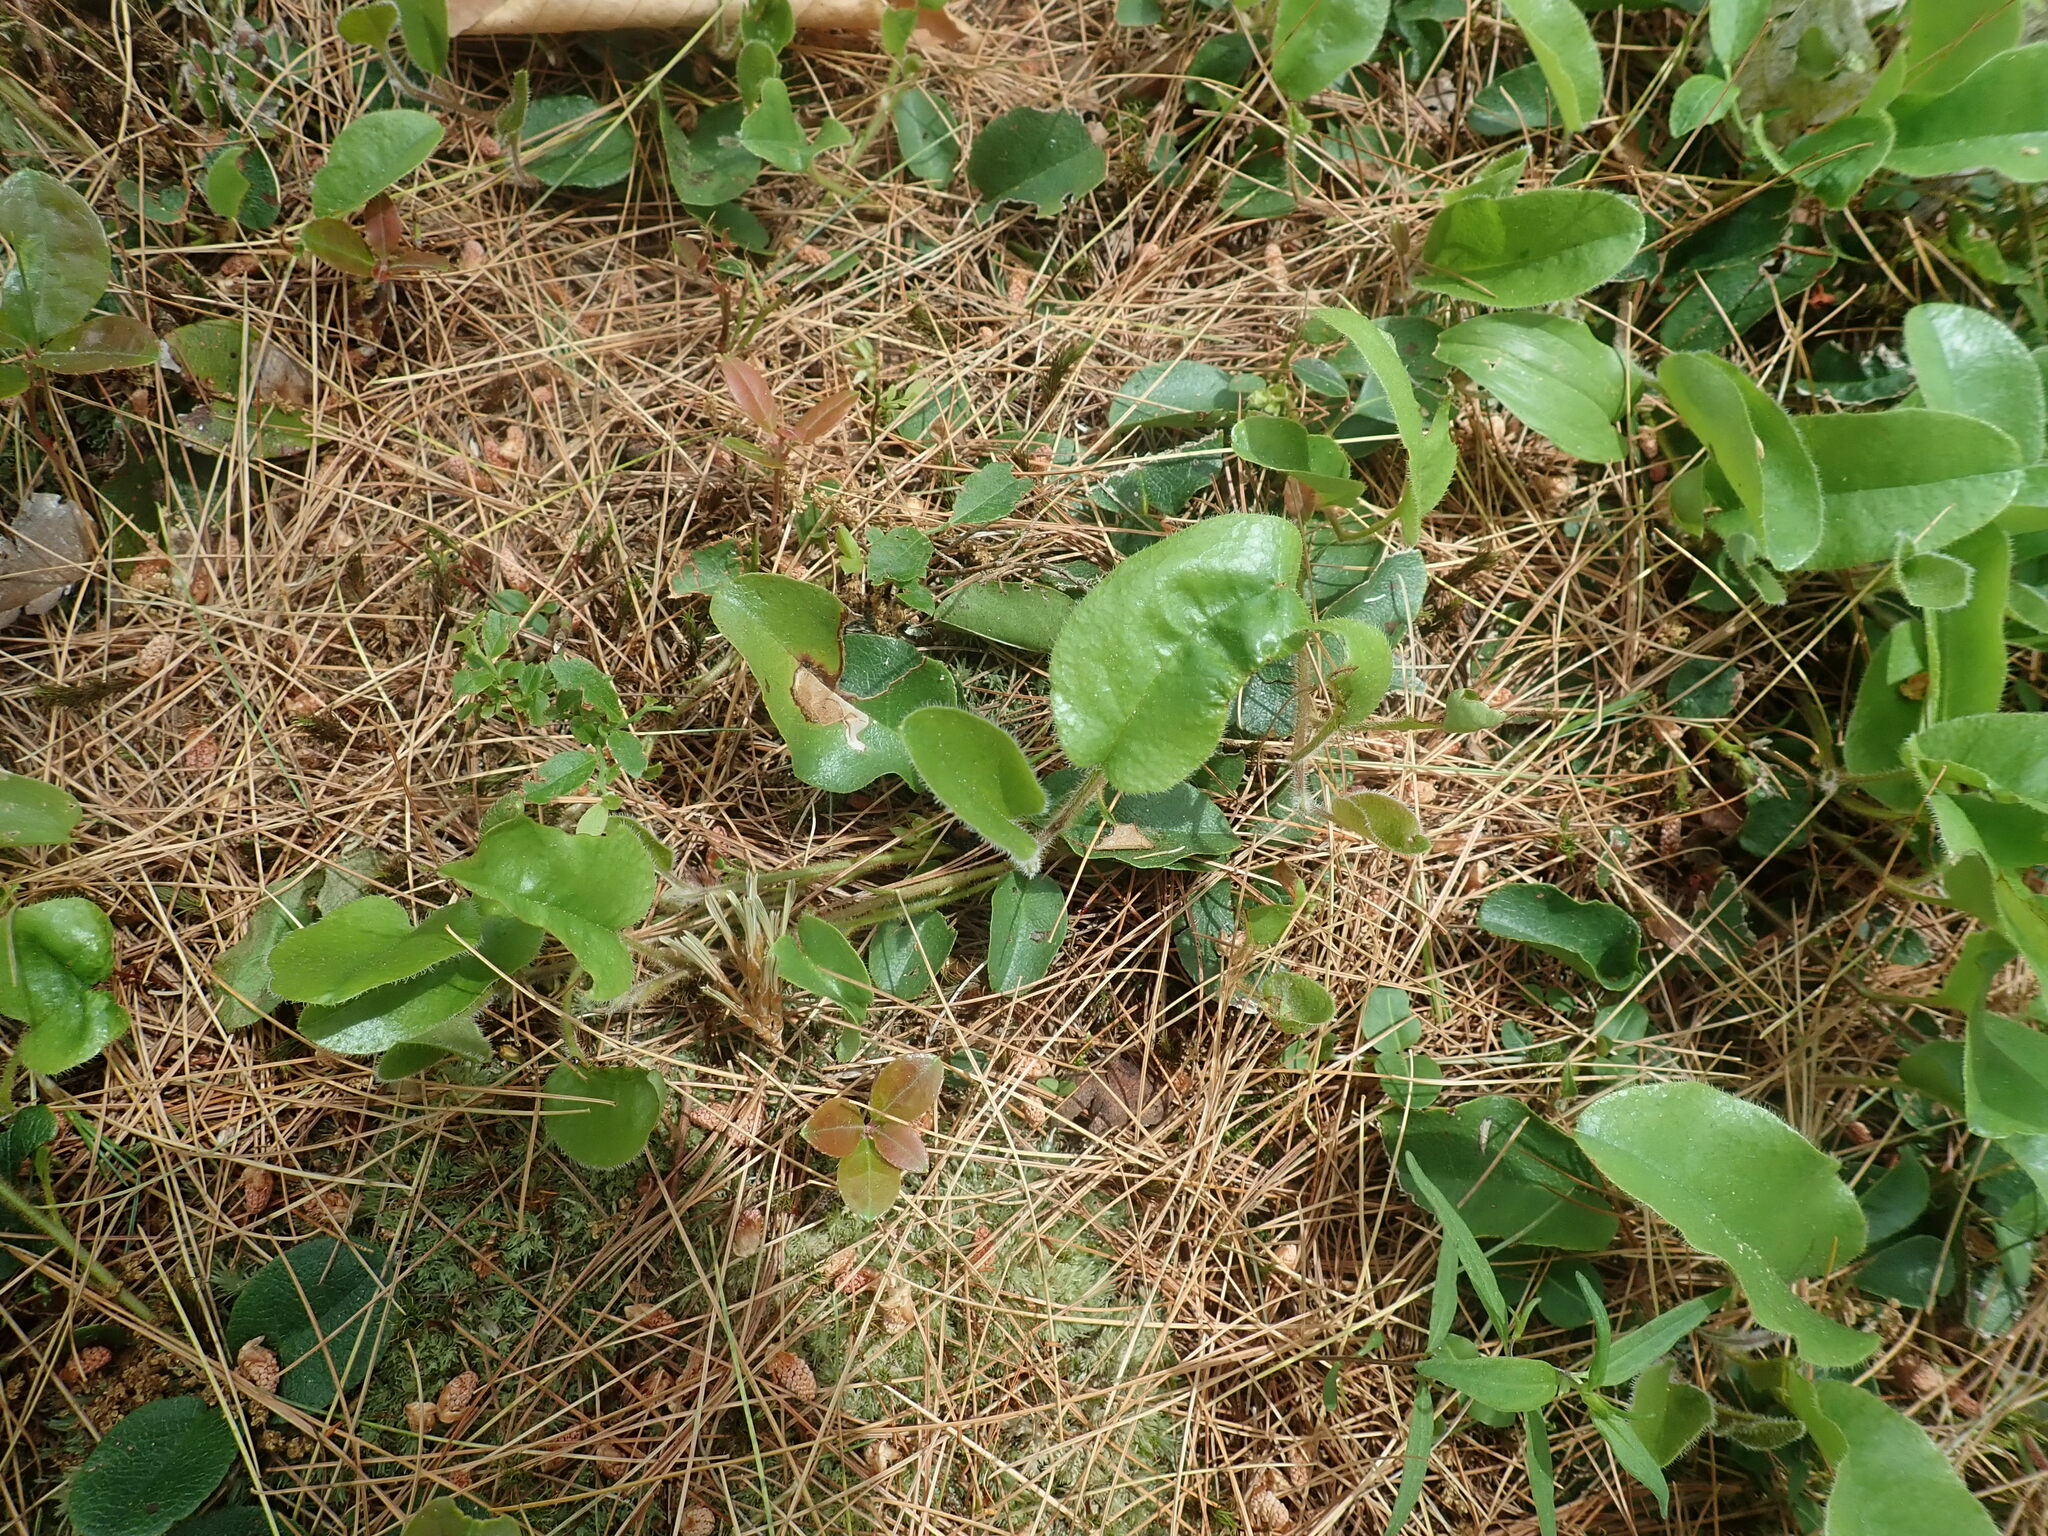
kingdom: Plantae
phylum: Tracheophyta
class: Magnoliopsida
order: Ericales
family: Ericaceae
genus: Epigaea
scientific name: Epigaea repens
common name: Gravelroot
